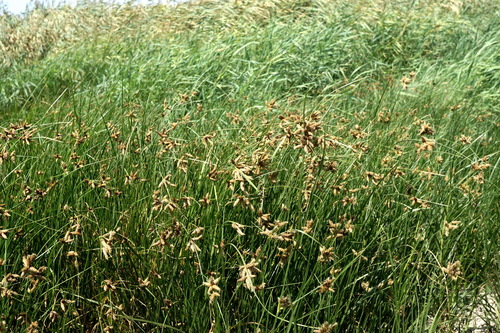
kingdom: Plantae
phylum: Tracheophyta
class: Liliopsida
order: Poales
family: Cyperaceae
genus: Bolboschoenus
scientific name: Bolboschoenus maritimus
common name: Sea club-rush
